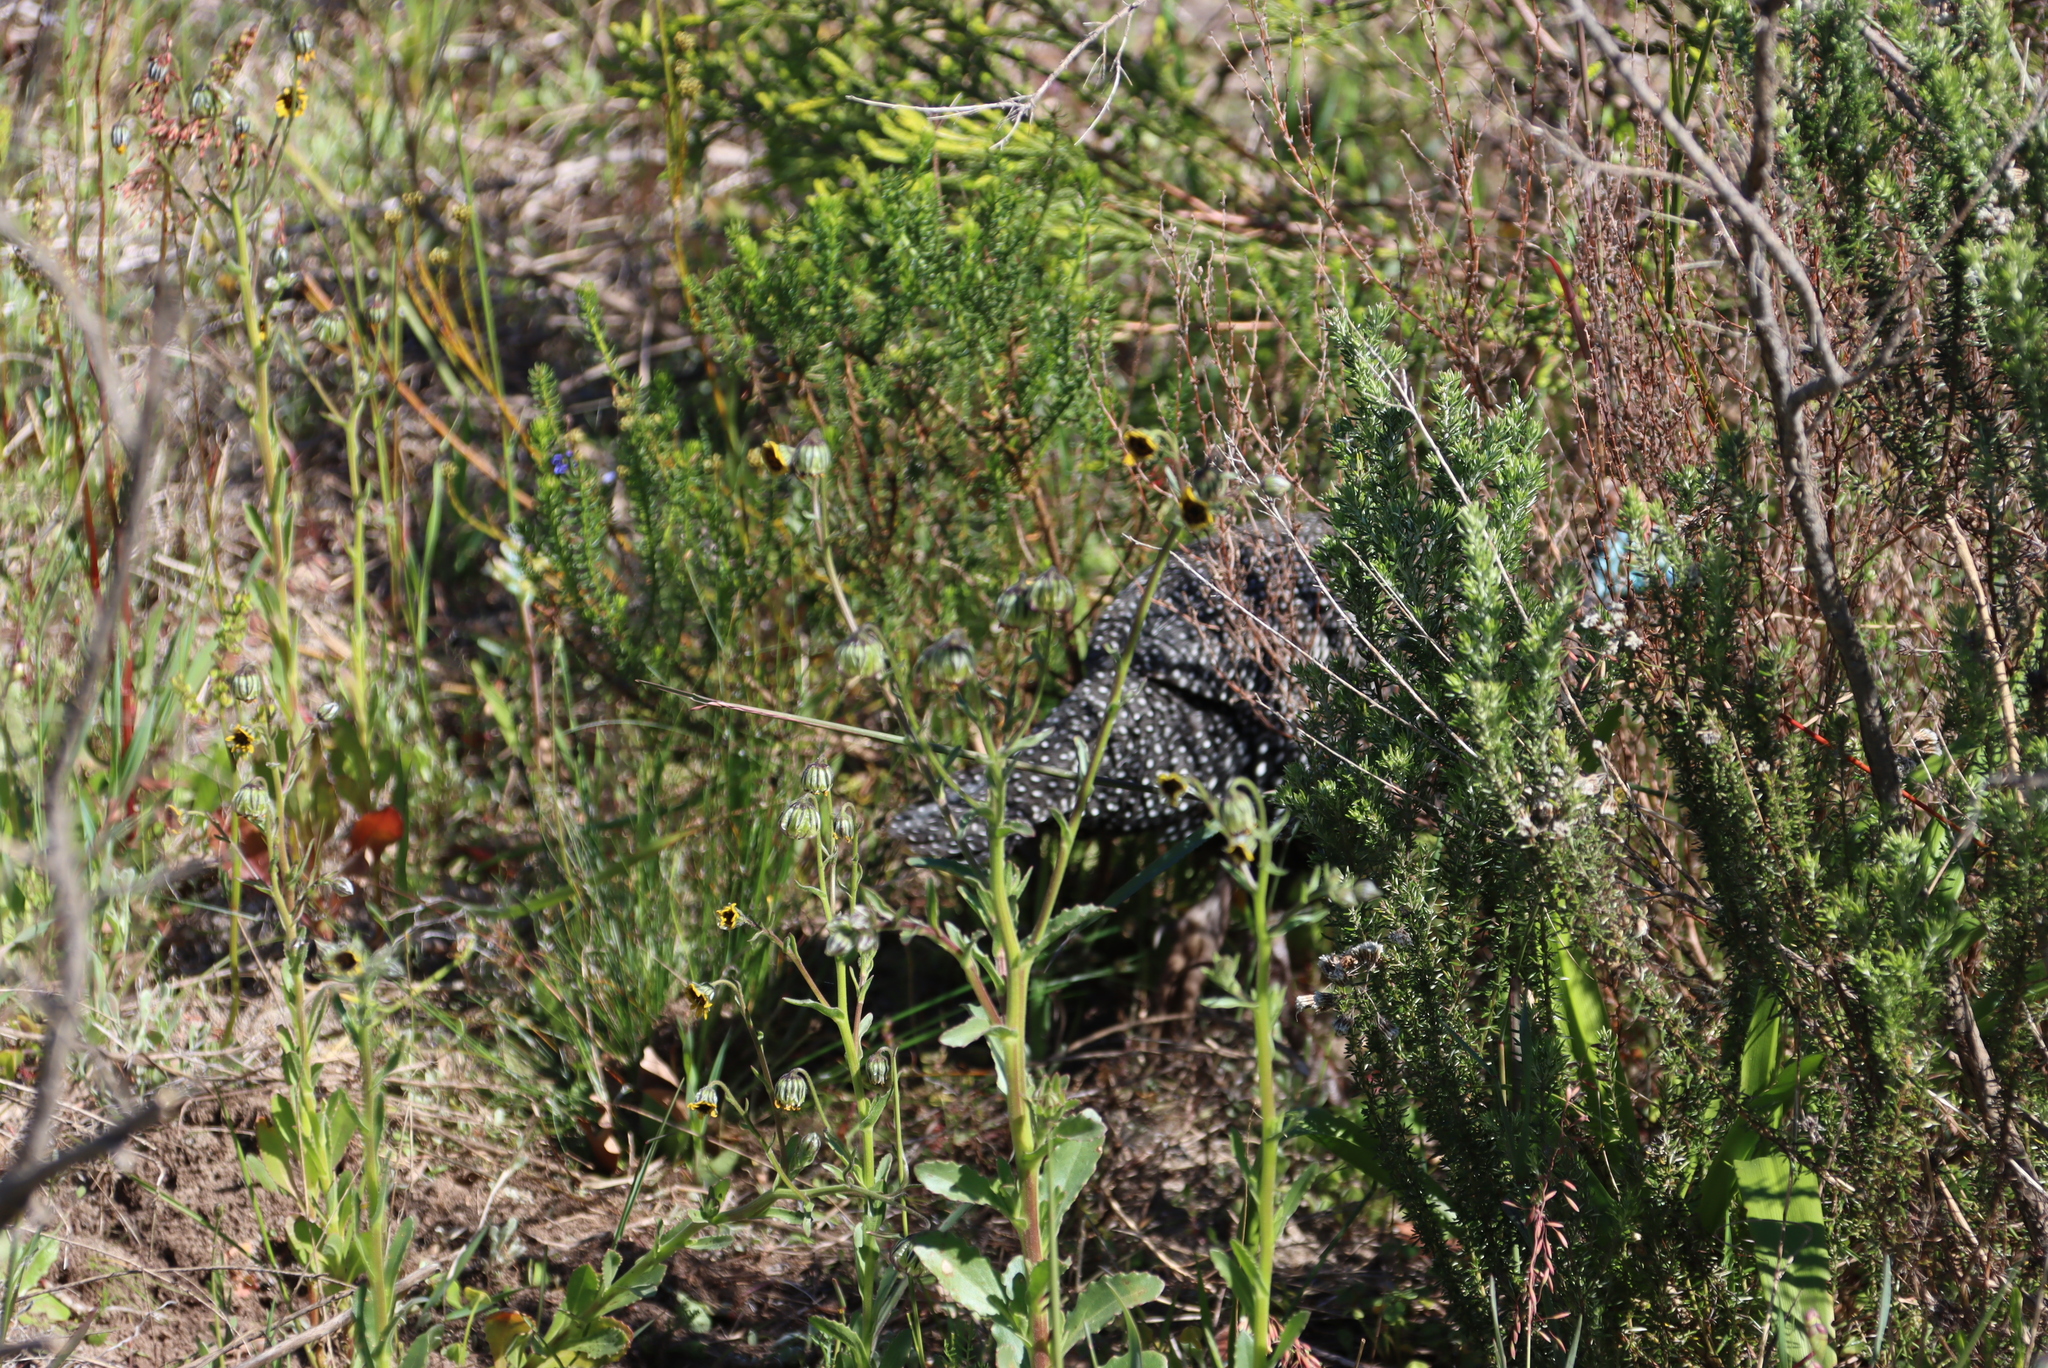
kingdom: Animalia
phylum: Chordata
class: Aves
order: Galliformes
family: Numididae
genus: Numida
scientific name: Numida meleagris
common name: Helmeted guineafowl
